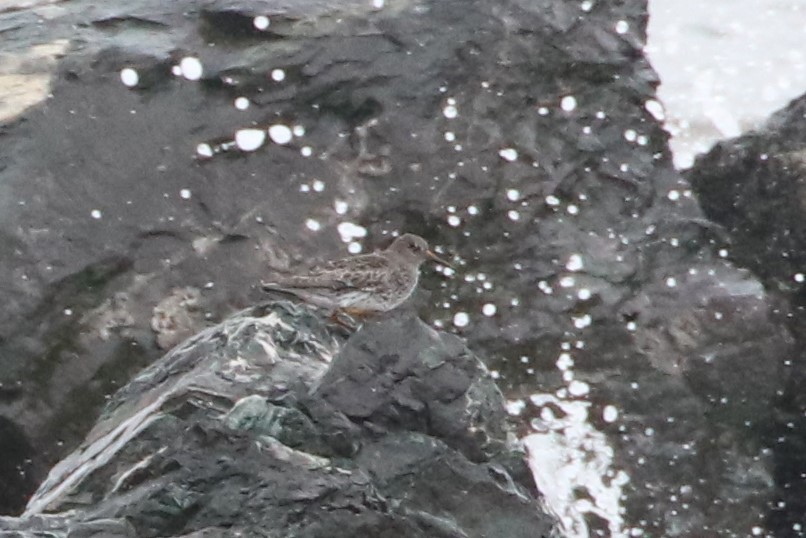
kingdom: Animalia
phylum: Chordata
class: Aves
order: Charadriiformes
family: Scolopacidae
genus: Calidris
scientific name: Calidris maritima
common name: Purple sandpiper
